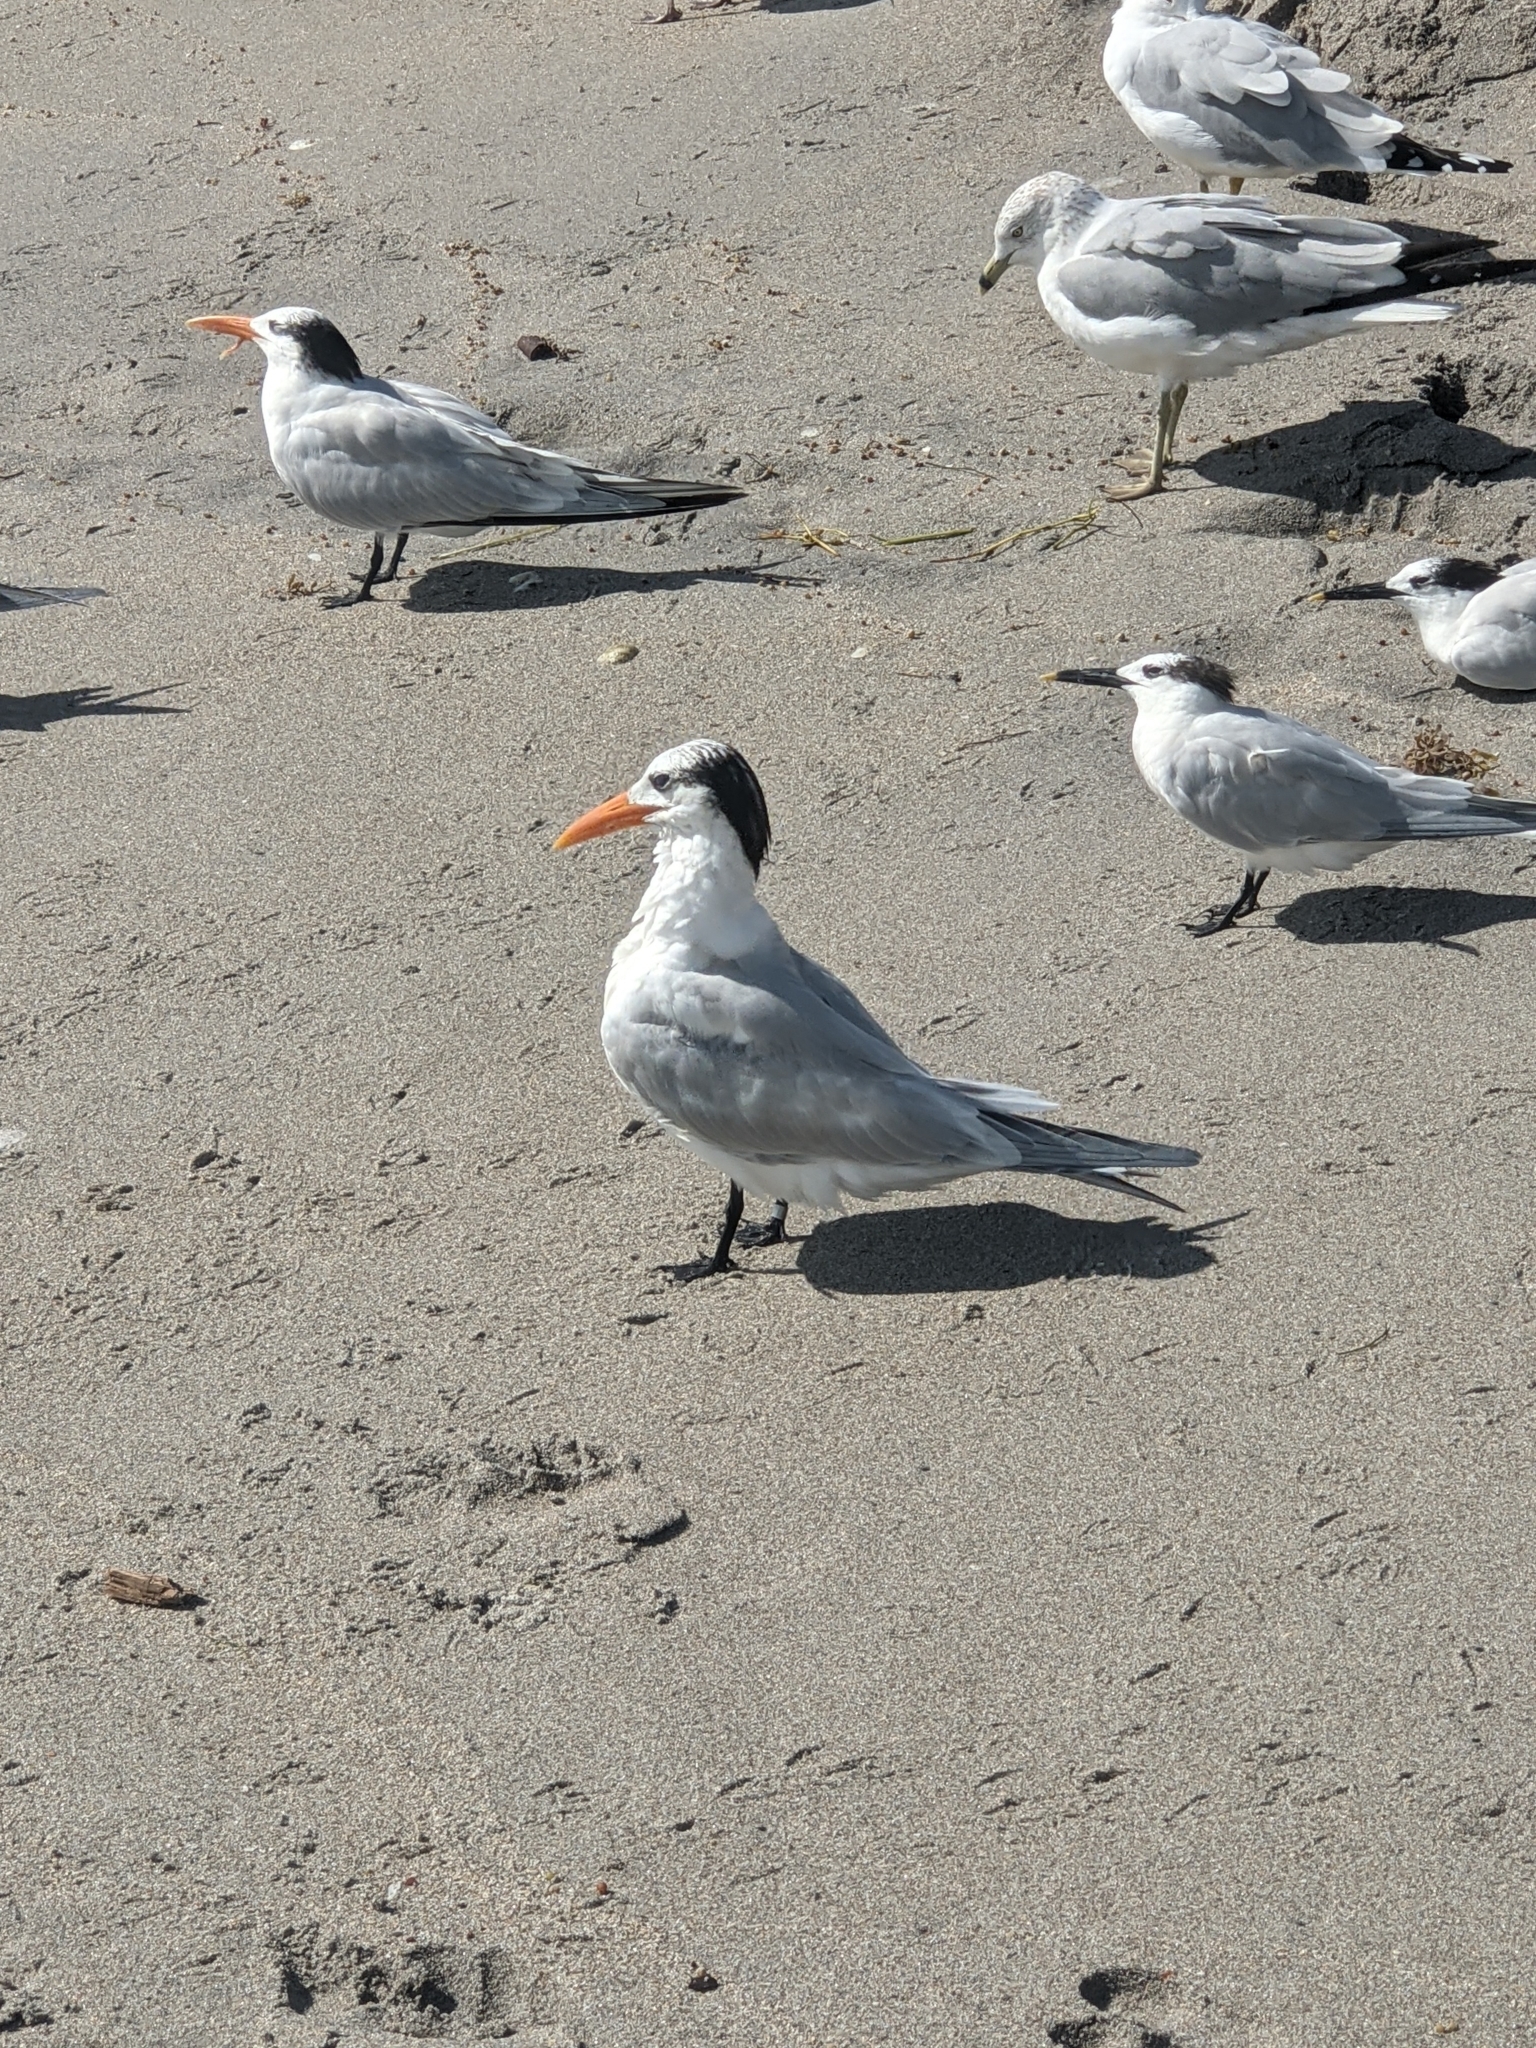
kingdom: Animalia
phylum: Chordata
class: Aves
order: Charadriiformes
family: Laridae
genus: Thalasseus
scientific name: Thalasseus maximus
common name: Royal tern
